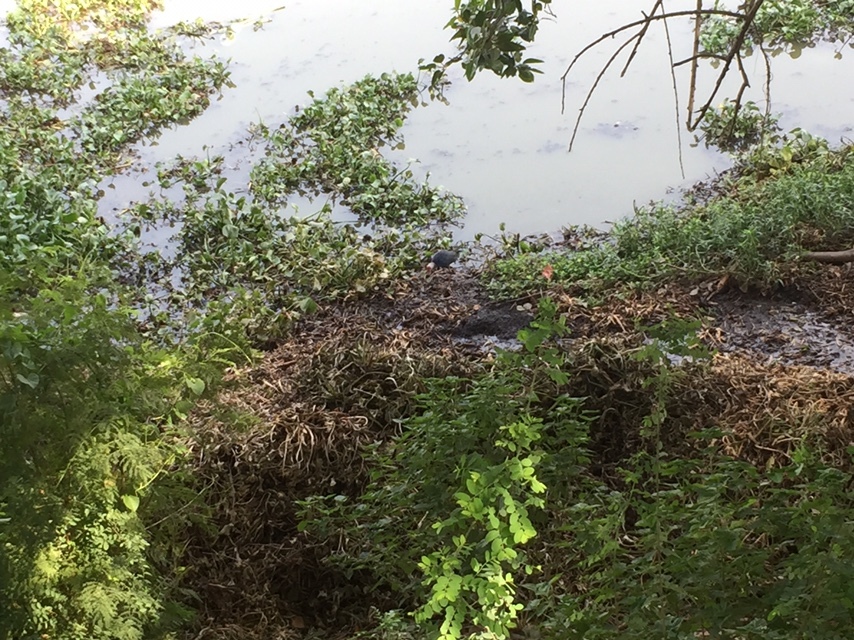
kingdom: Animalia
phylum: Chordata
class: Aves
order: Gruiformes
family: Rallidae
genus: Porphyrio
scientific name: Porphyrio porphyrio
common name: Purple swamphen
